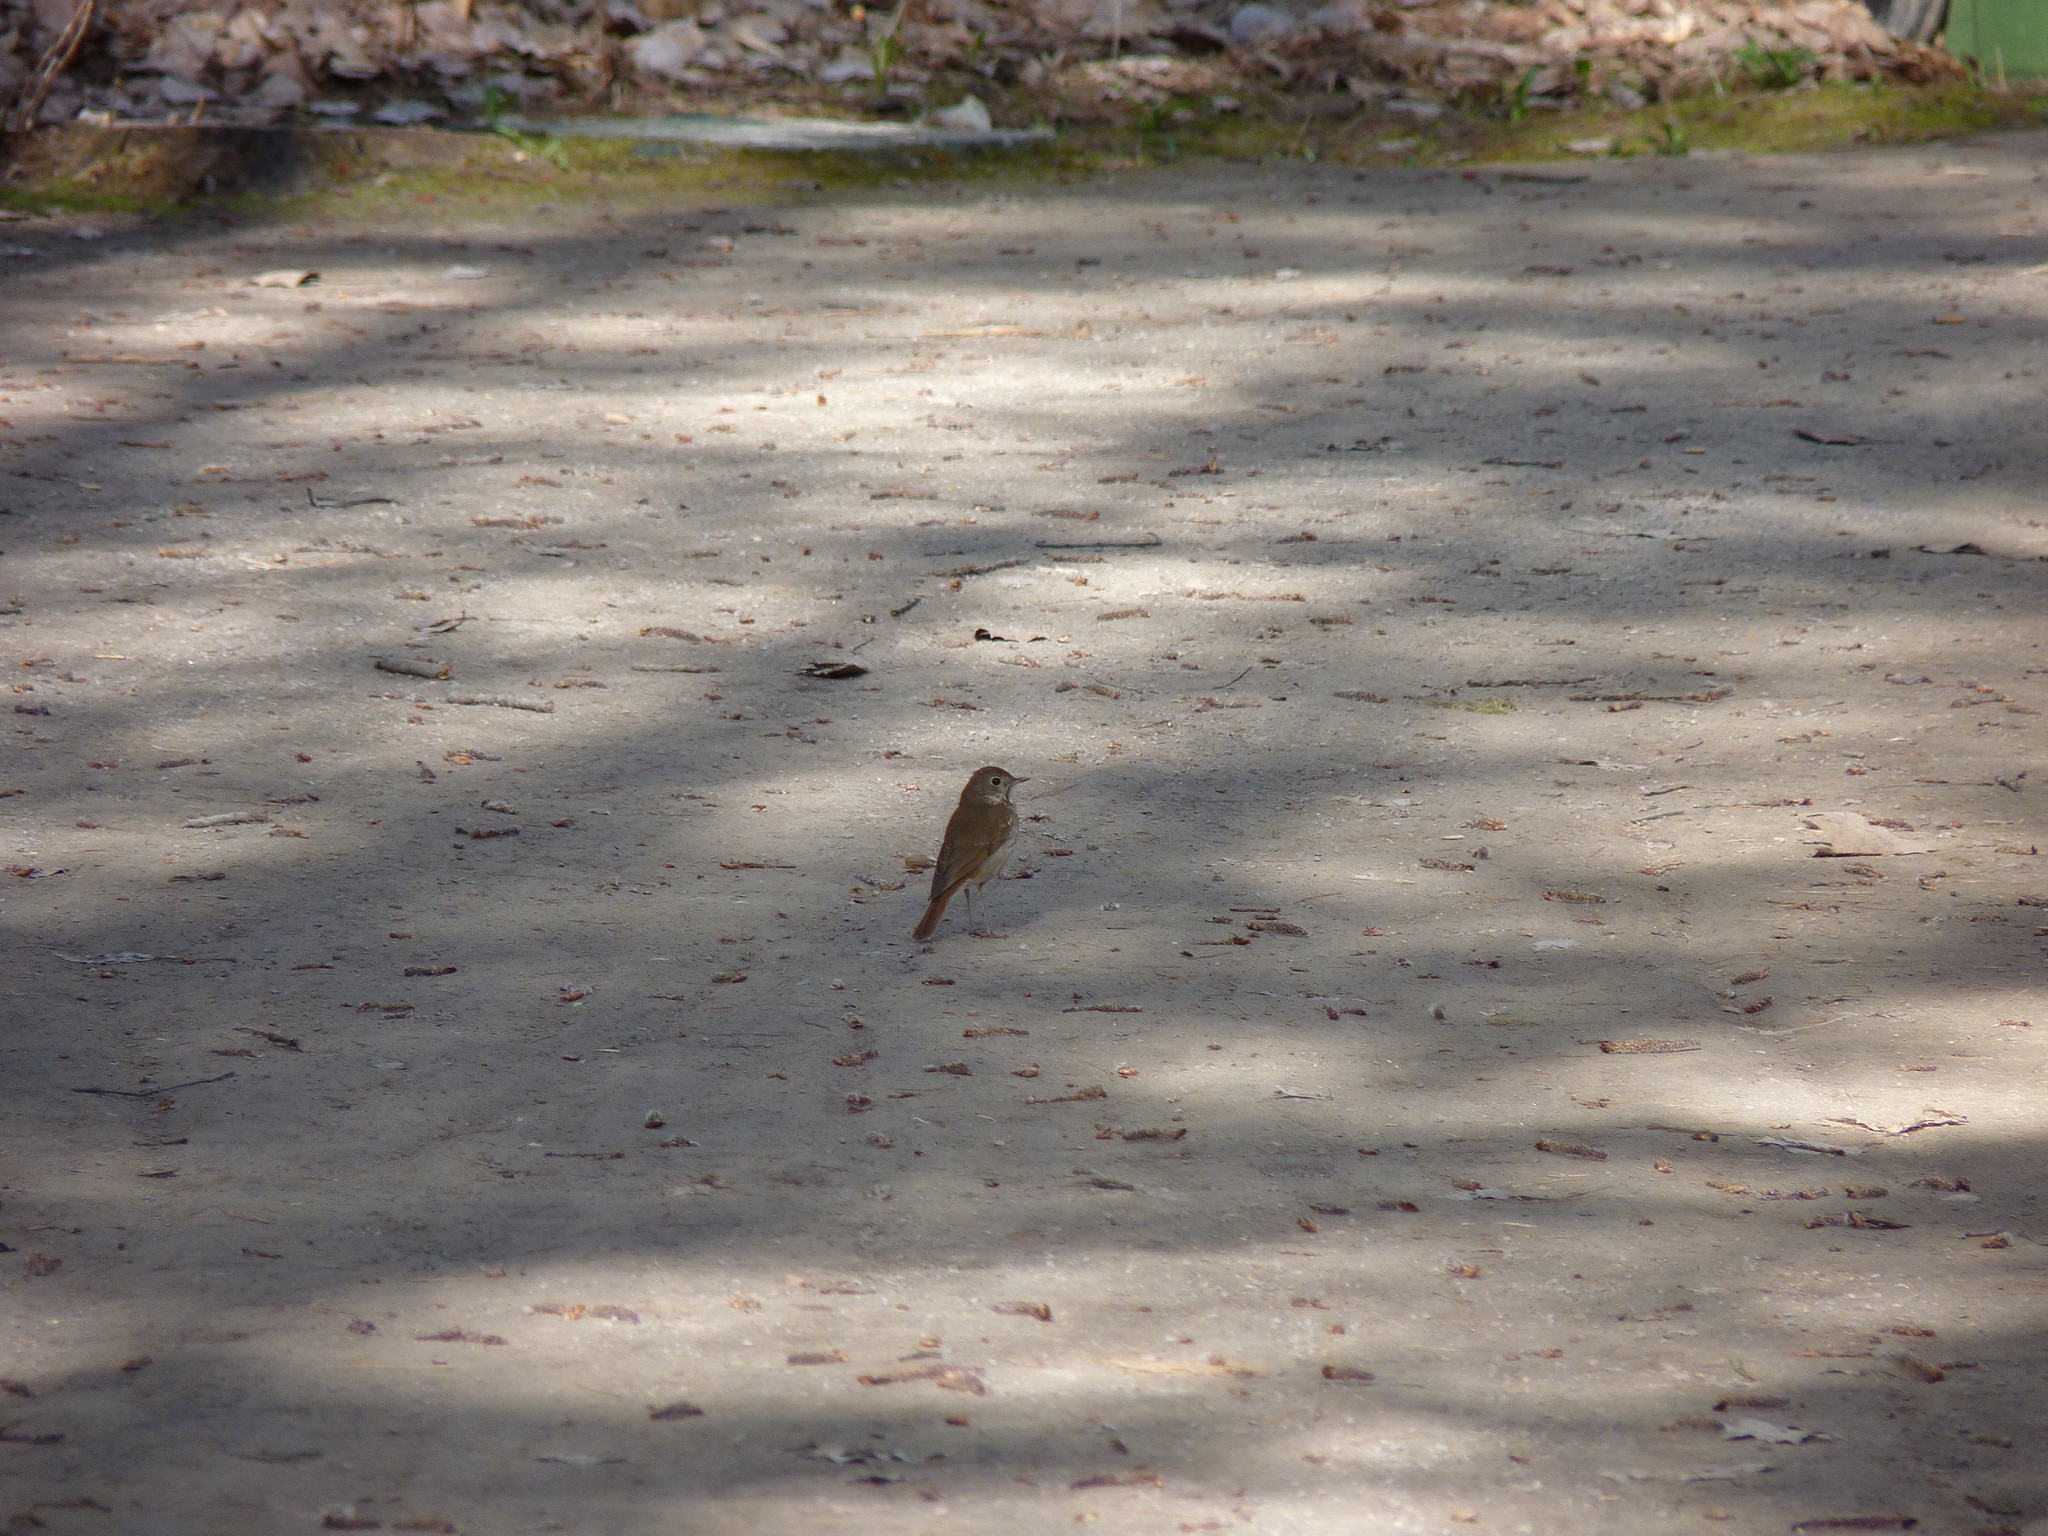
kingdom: Animalia
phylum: Chordata
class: Aves
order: Passeriformes
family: Turdidae
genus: Catharus
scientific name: Catharus guttatus
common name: Hermit thrush
